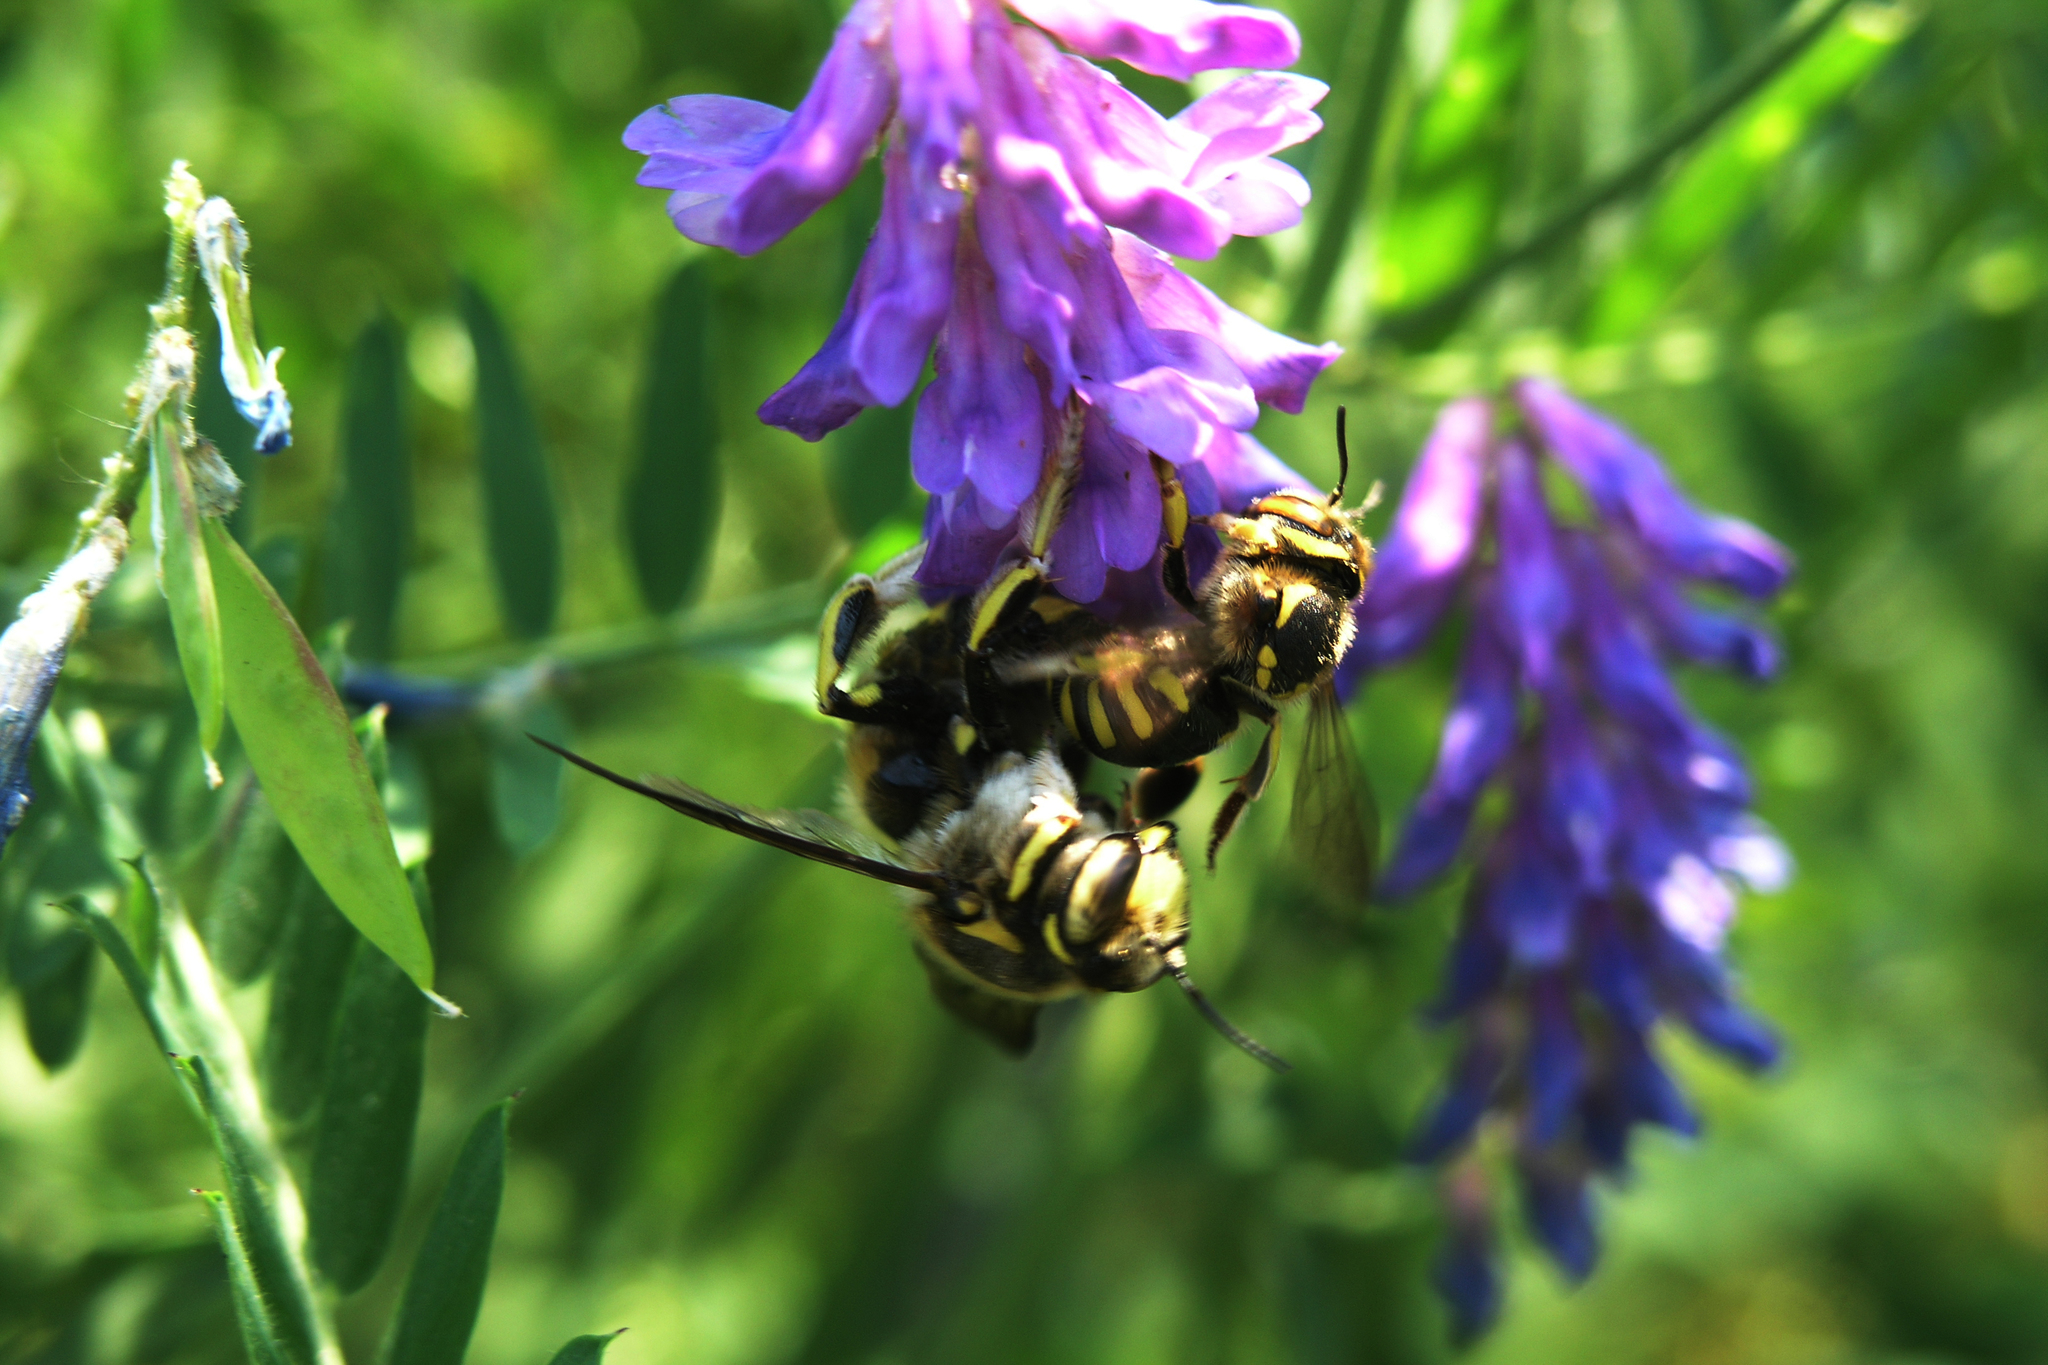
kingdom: Plantae
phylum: Tracheophyta
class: Magnoliopsida
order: Fabales
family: Fabaceae
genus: Vicia
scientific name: Vicia cracca
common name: Bird vetch
